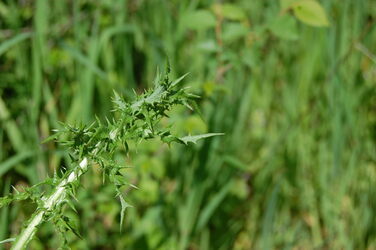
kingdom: Plantae
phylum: Tracheophyta
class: Magnoliopsida
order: Asterales
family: Asteraceae
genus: Sonchus
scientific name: Sonchus asper
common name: Prickly sow-thistle
